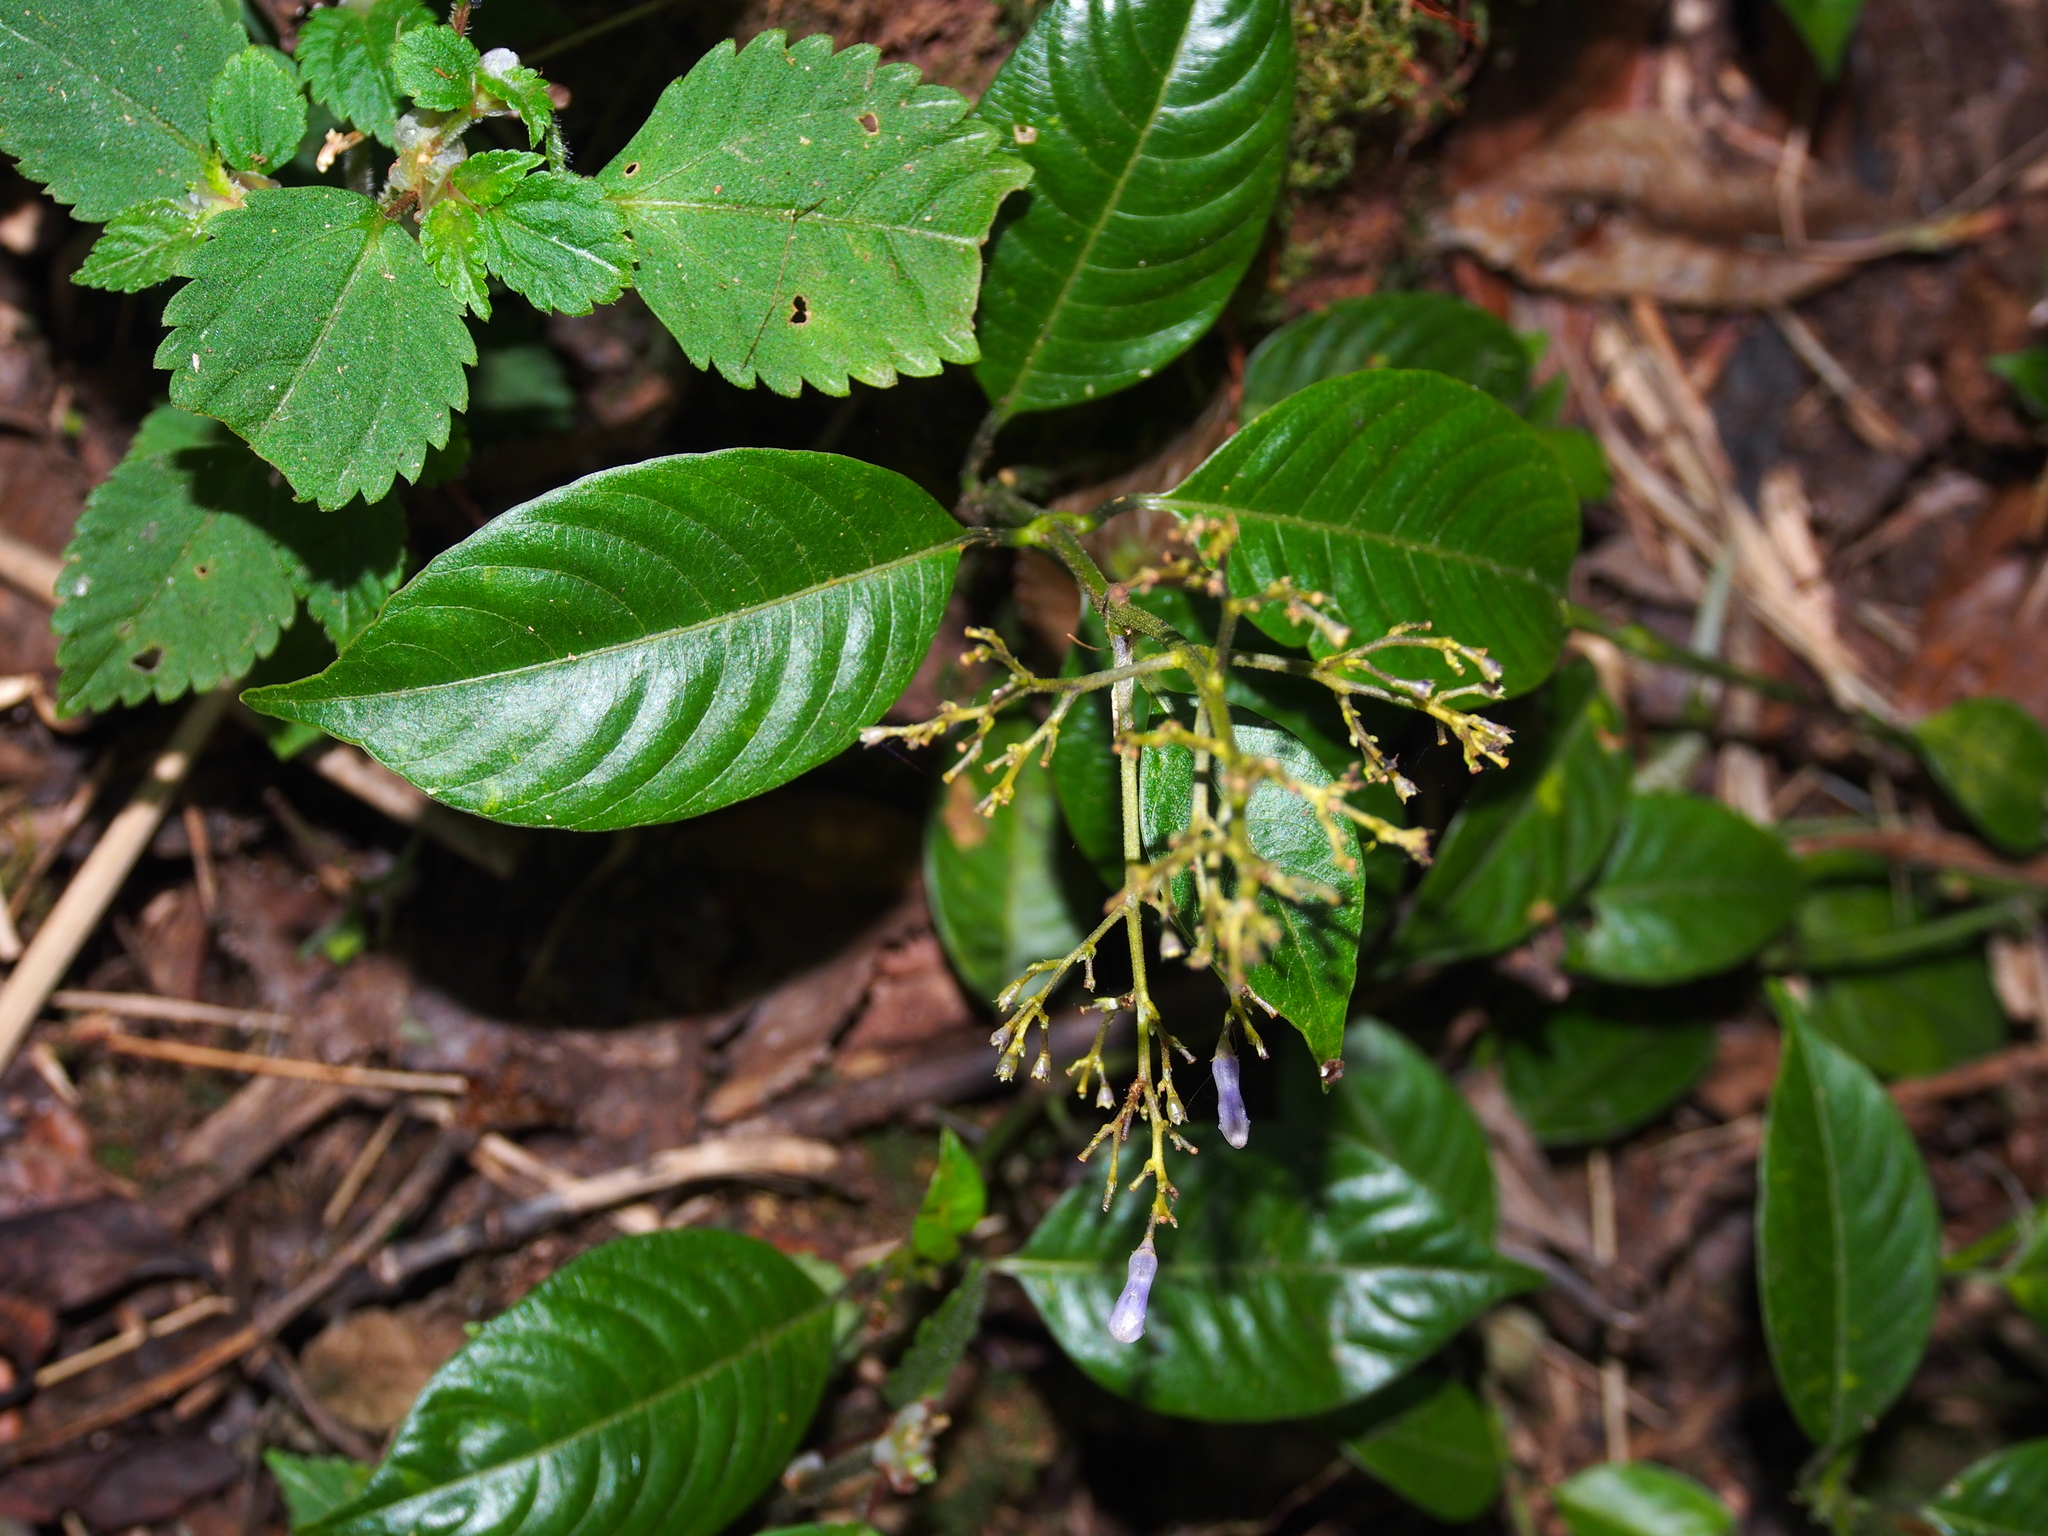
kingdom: Plantae
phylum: Tracheophyta
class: Magnoliopsida
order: Gentianales
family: Rubiaceae
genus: Palicourea
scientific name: Palicourea adusta
